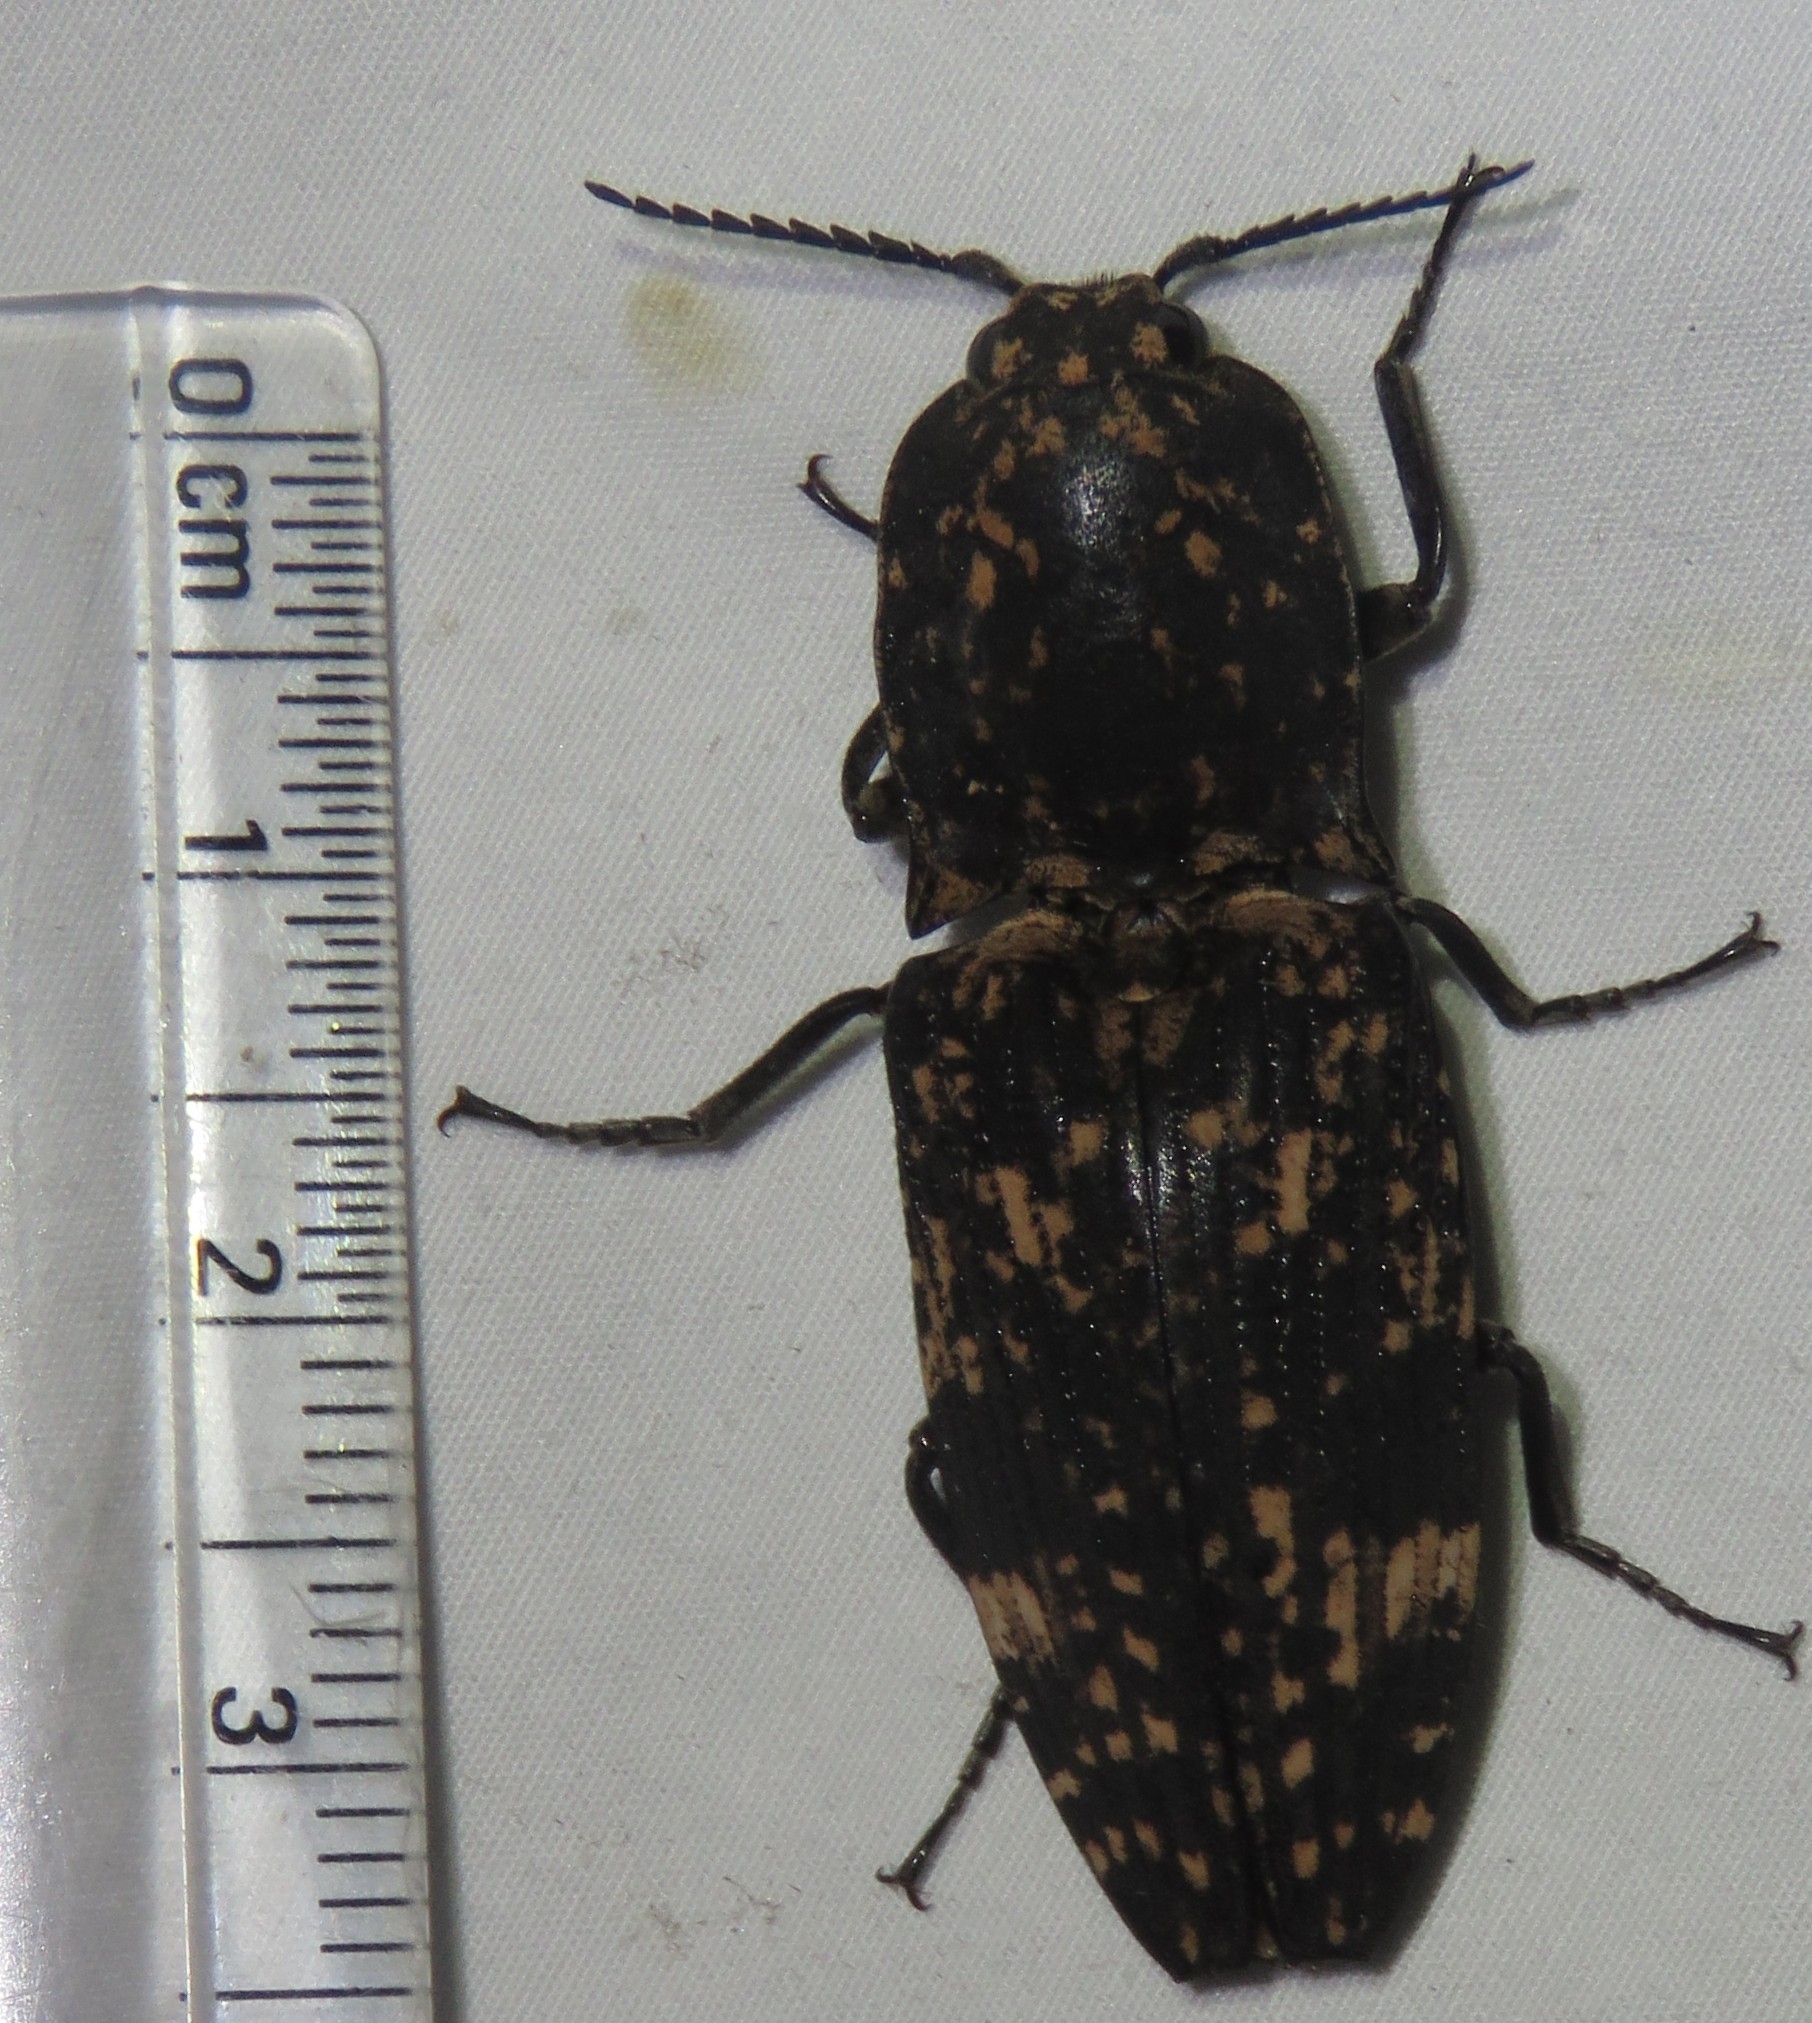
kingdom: Animalia
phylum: Arthropoda
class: Insecta
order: Coleoptera
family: Elateridae
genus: Cryptalaus
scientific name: Cryptalaus
